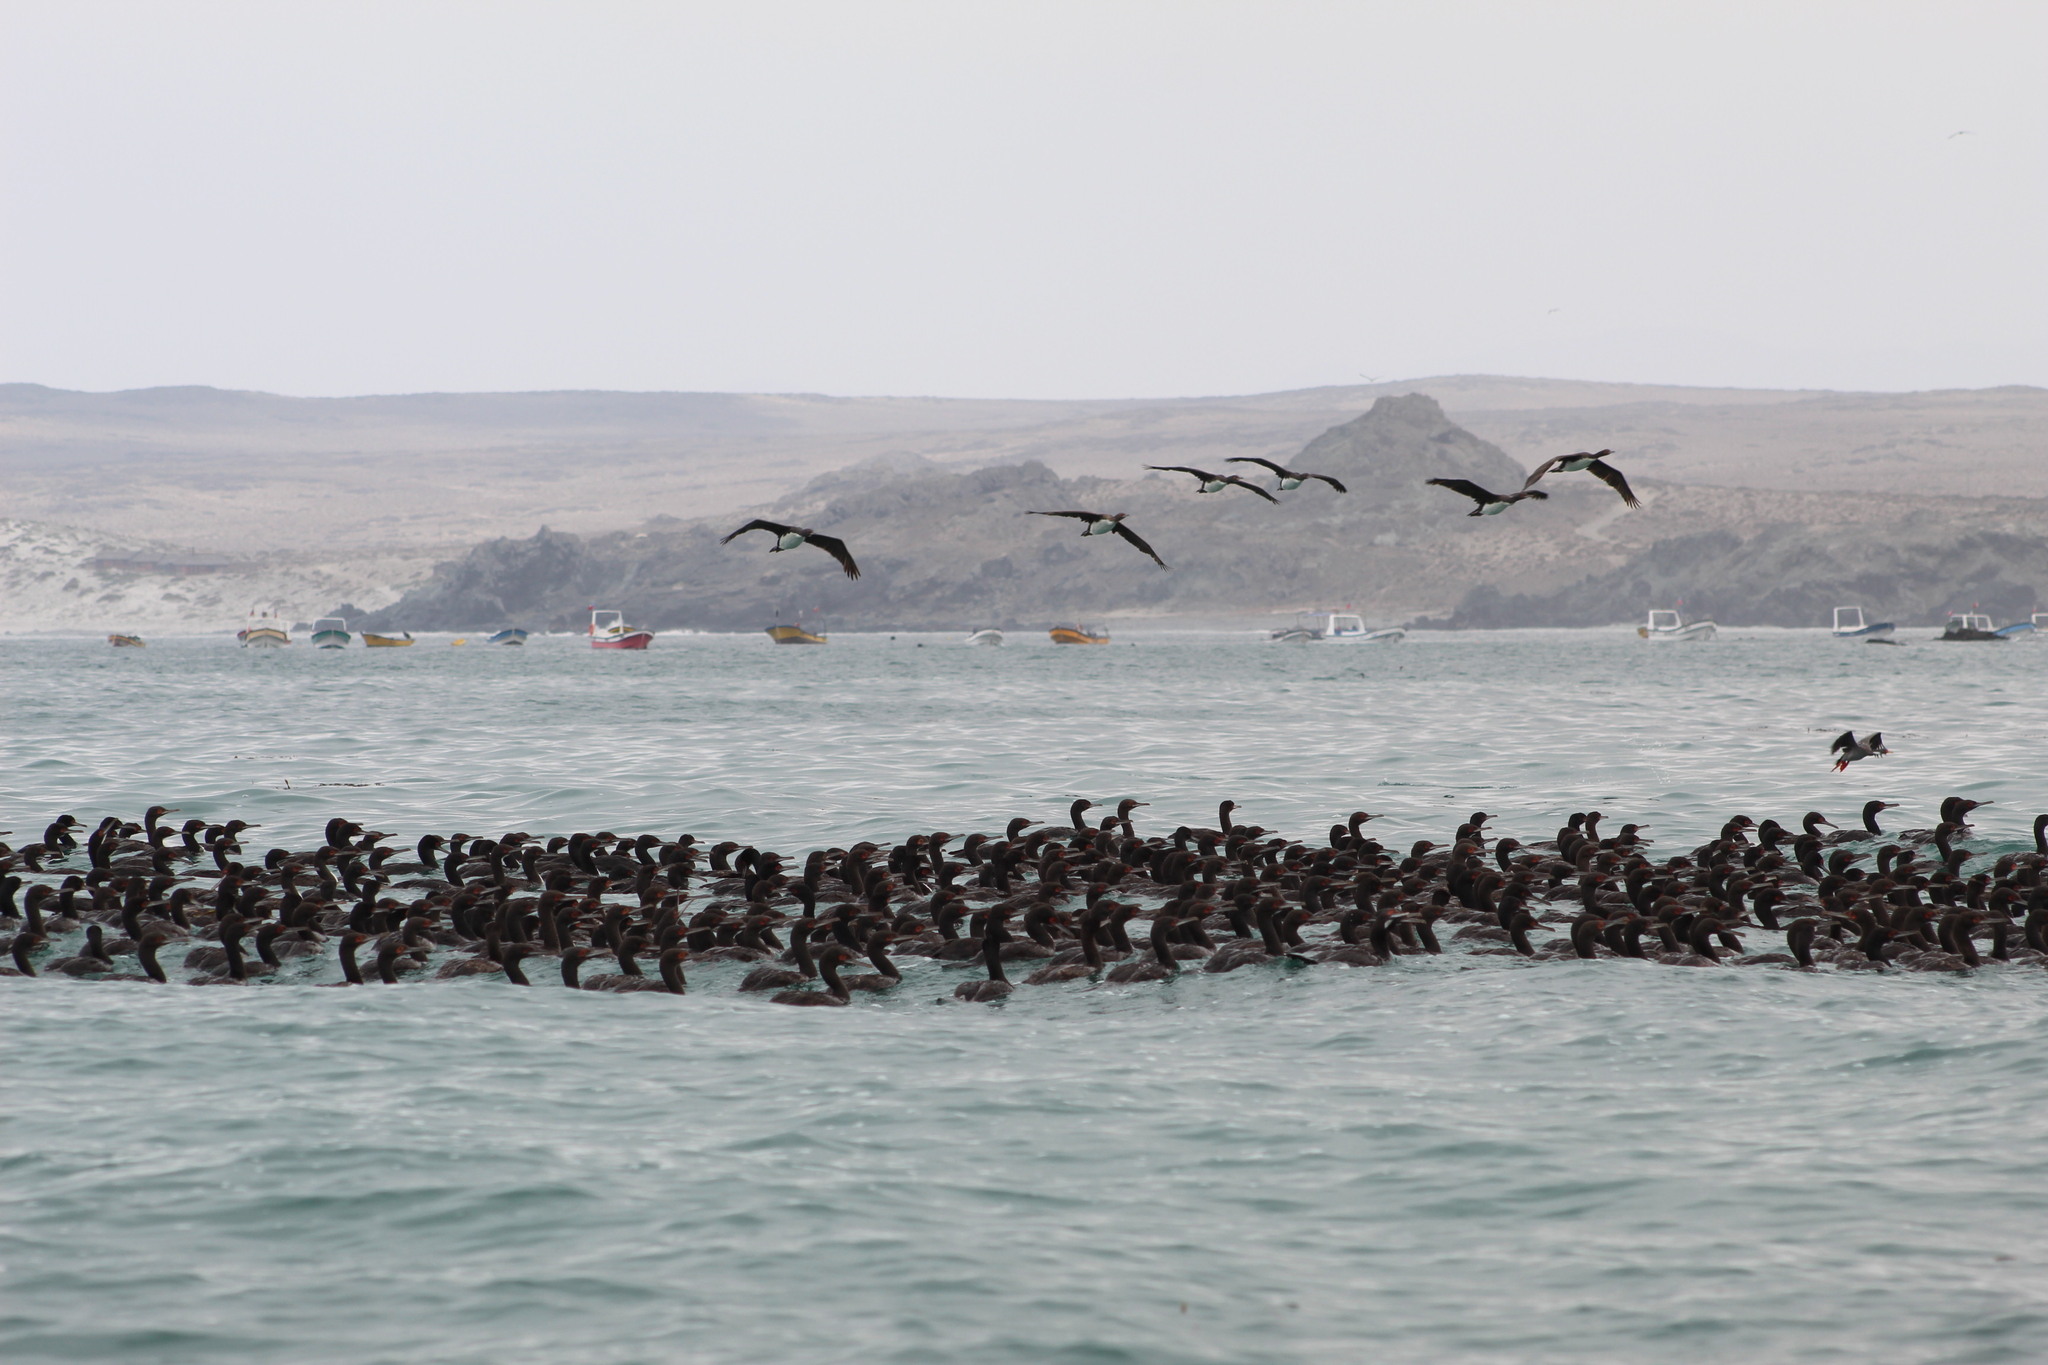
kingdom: Animalia
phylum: Chordata
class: Aves
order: Suliformes
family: Phalacrocoracidae
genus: Leucocarbo
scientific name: Leucocarbo bougainvillii
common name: Guanay cormorant
